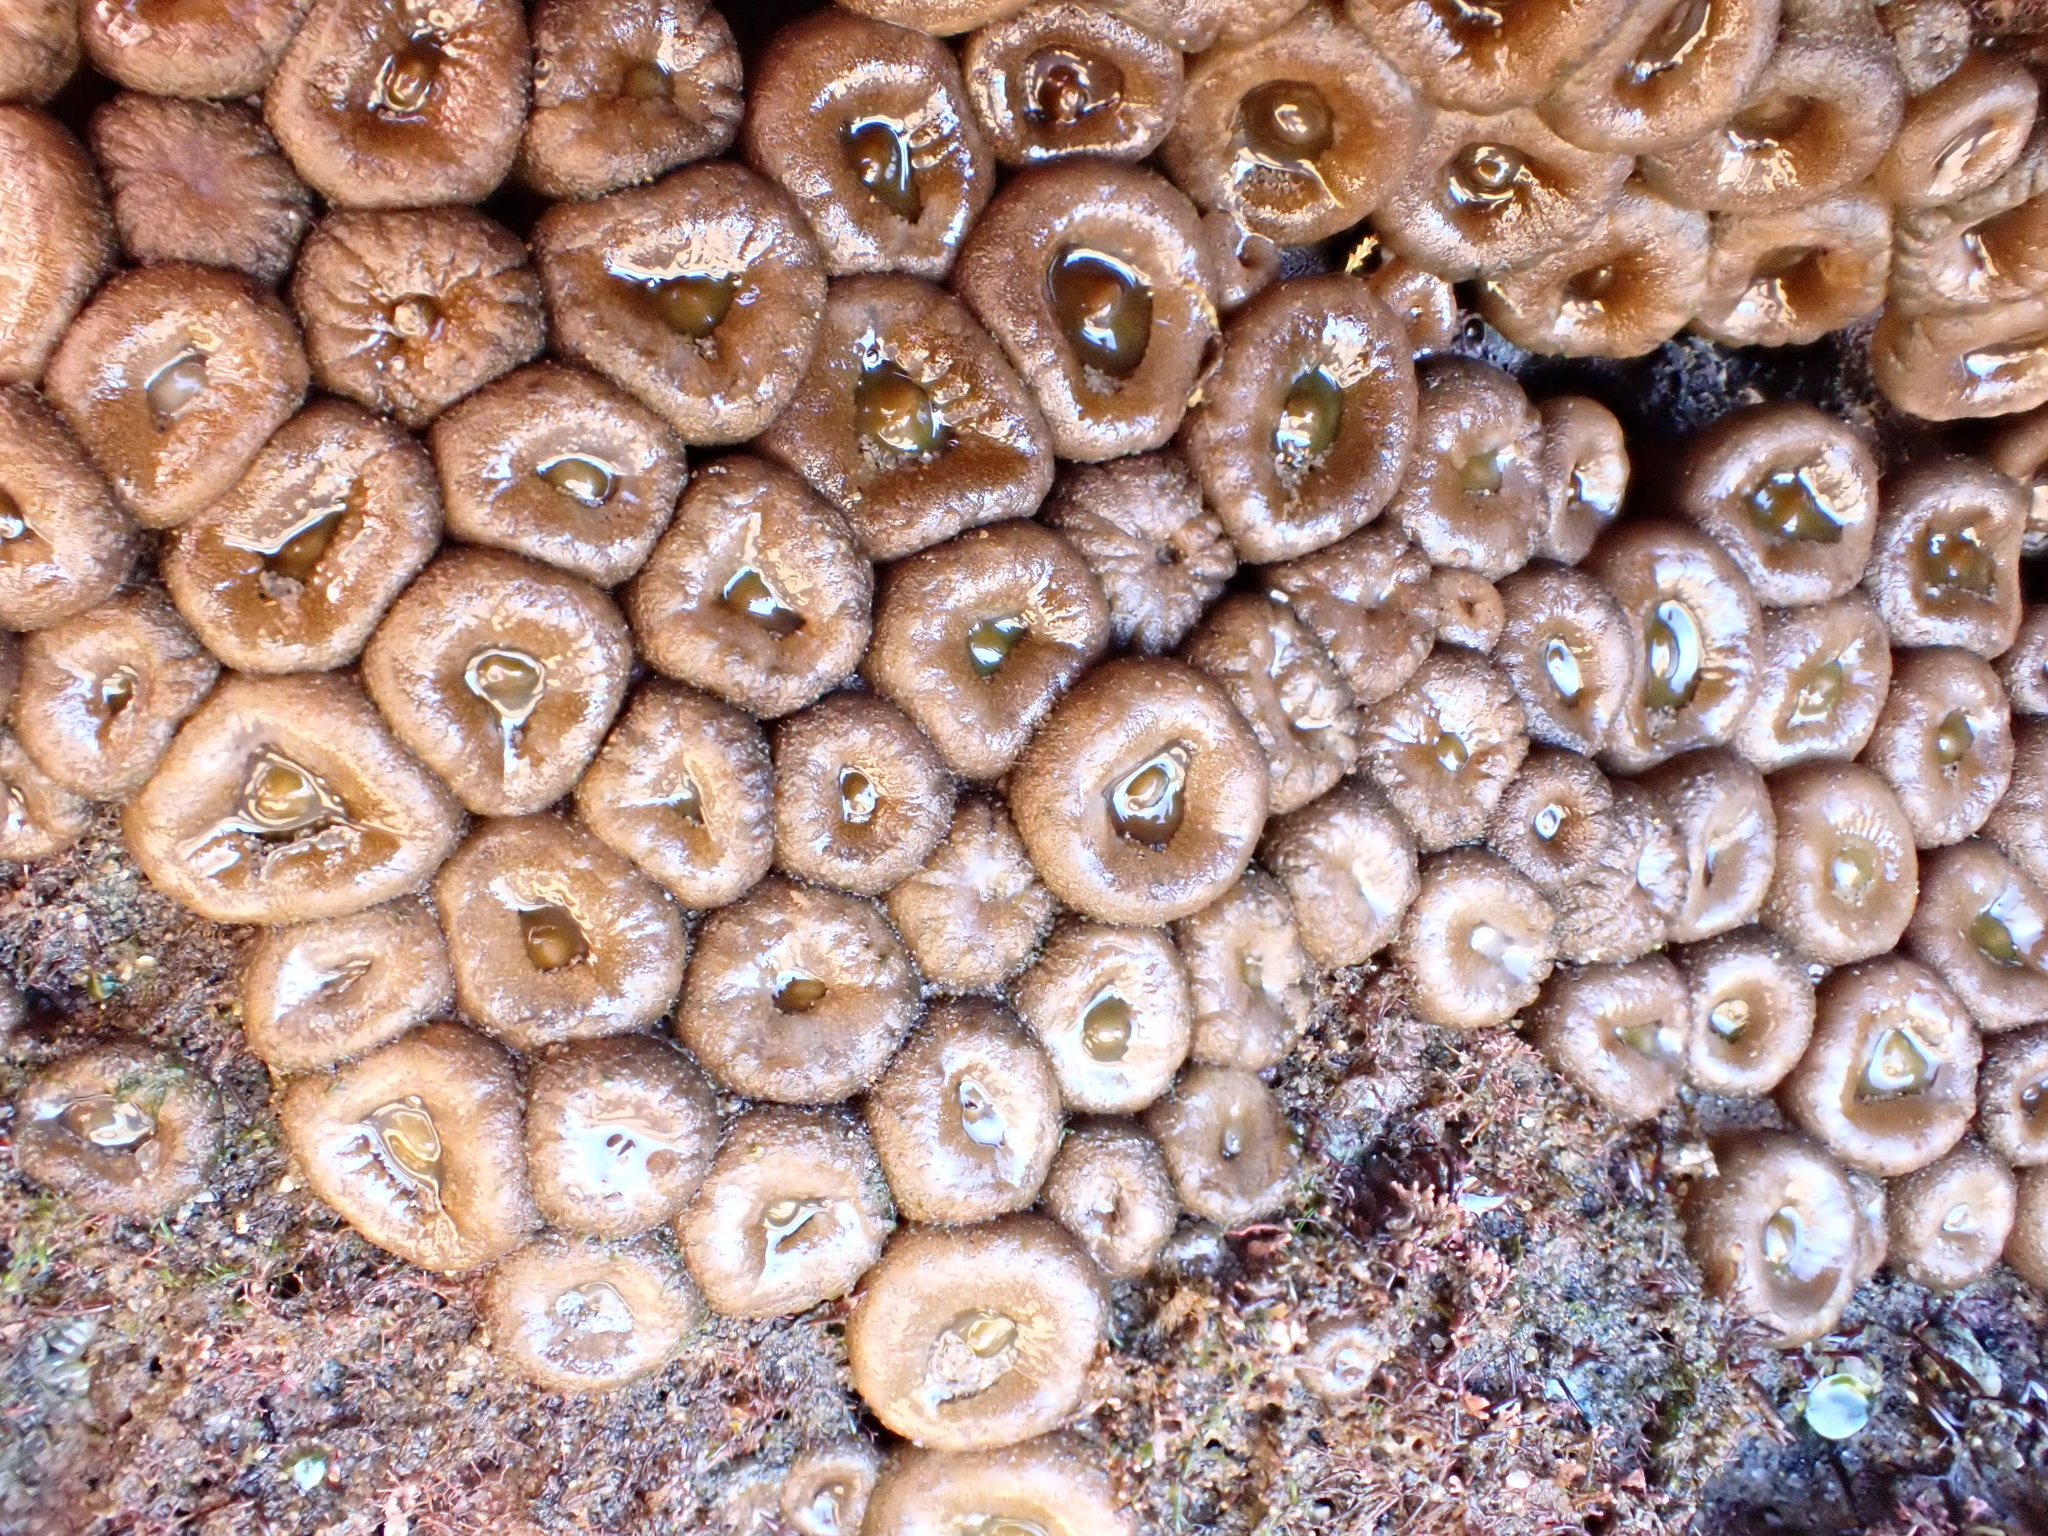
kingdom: Animalia
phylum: Cnidaria
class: Anthozoa
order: Zoantharia
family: Sphenopidae
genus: Palythoa
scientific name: Palythoa mutuki
